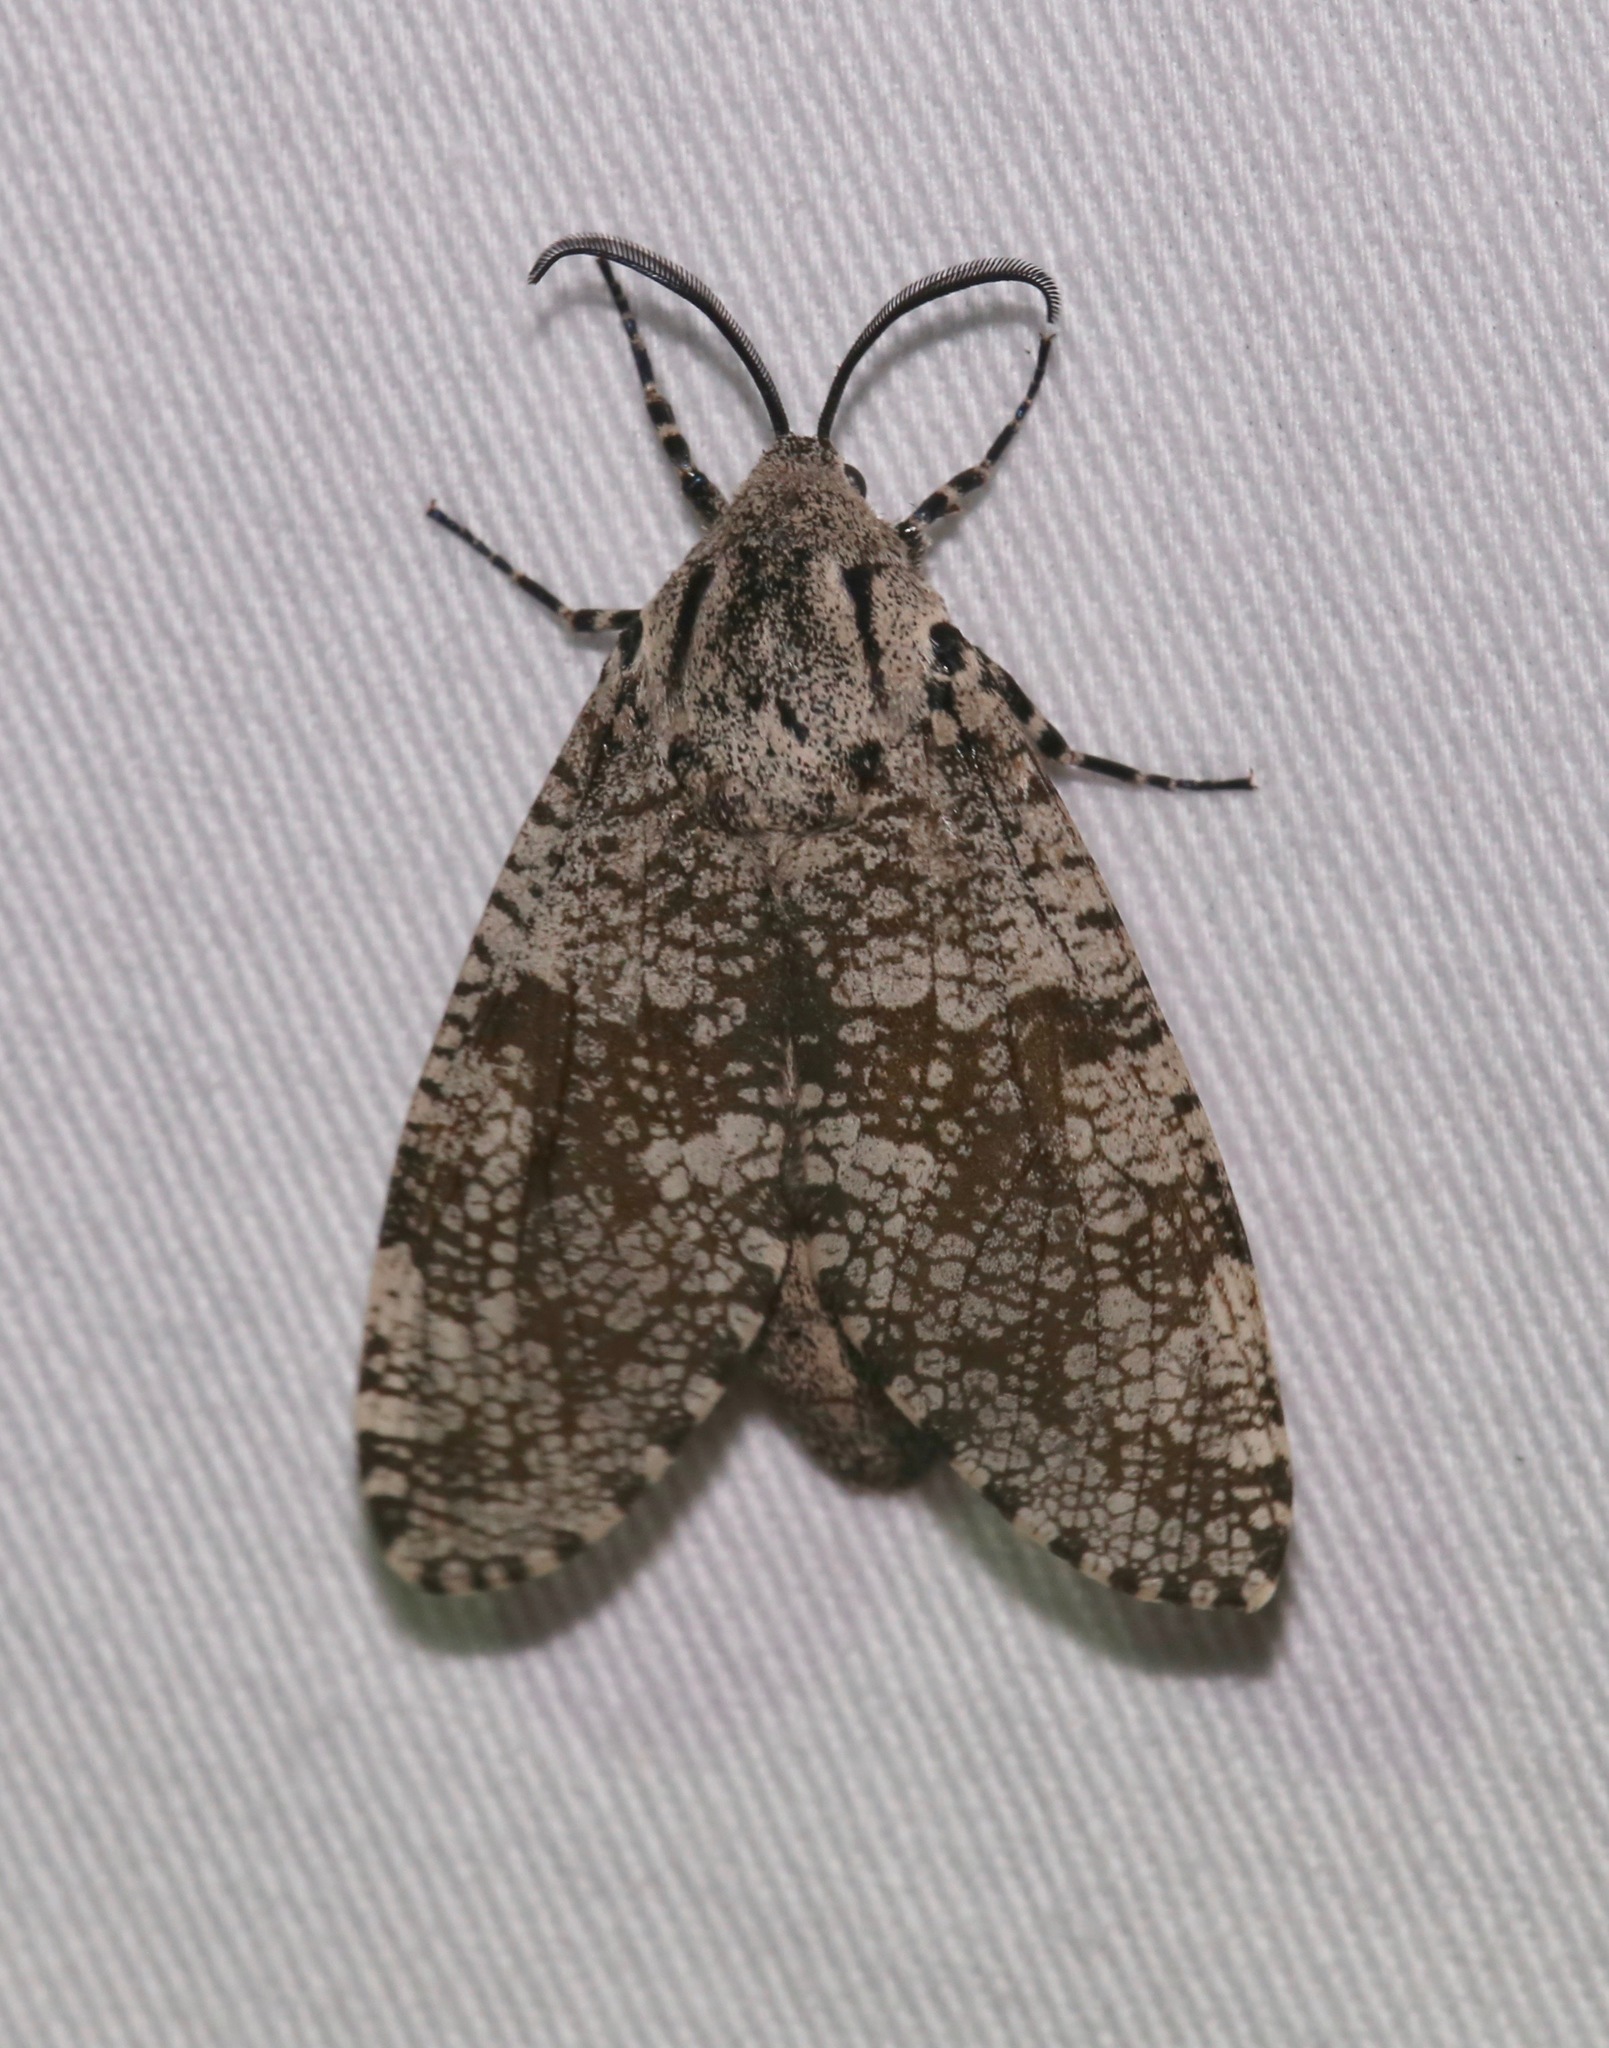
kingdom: Animalia
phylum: Arthropoda
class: Insecta
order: Lepidoptera
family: Cossidae
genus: Prionoxystus
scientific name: Prionoxystus robiniae
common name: Carpenterworm
